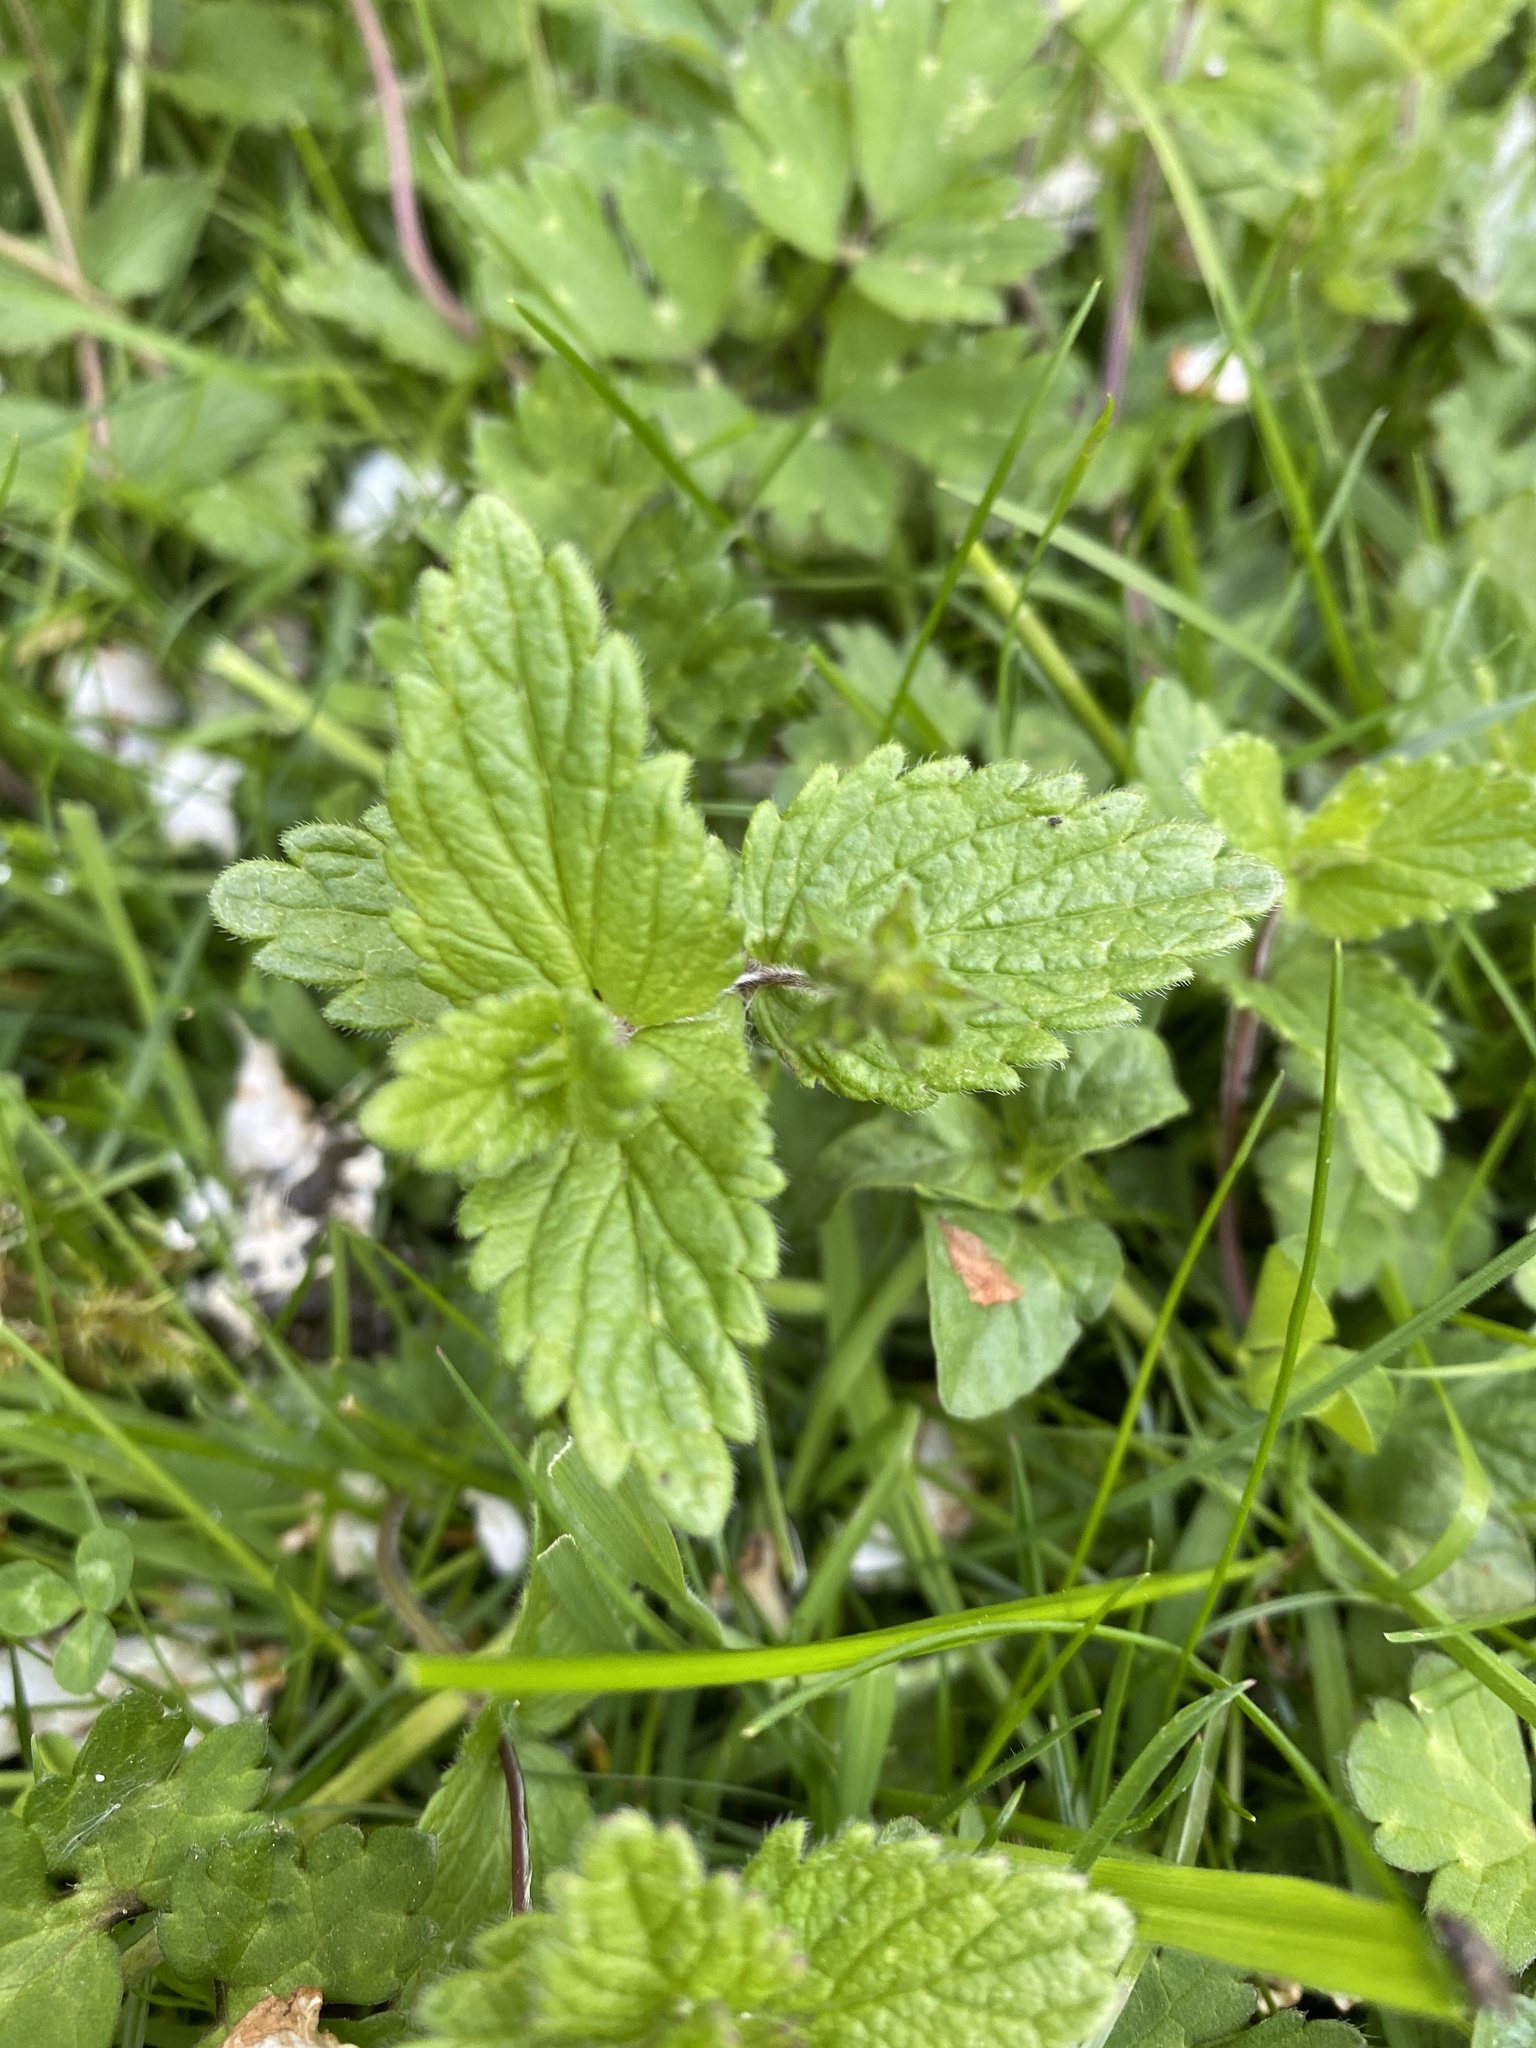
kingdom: Plantae
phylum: Tracheophyta
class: Magnoliopsida
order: Lamiales
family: Plantaginaceae
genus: Veronica
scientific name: Veronica chamaedrys
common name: Germander speedwell
